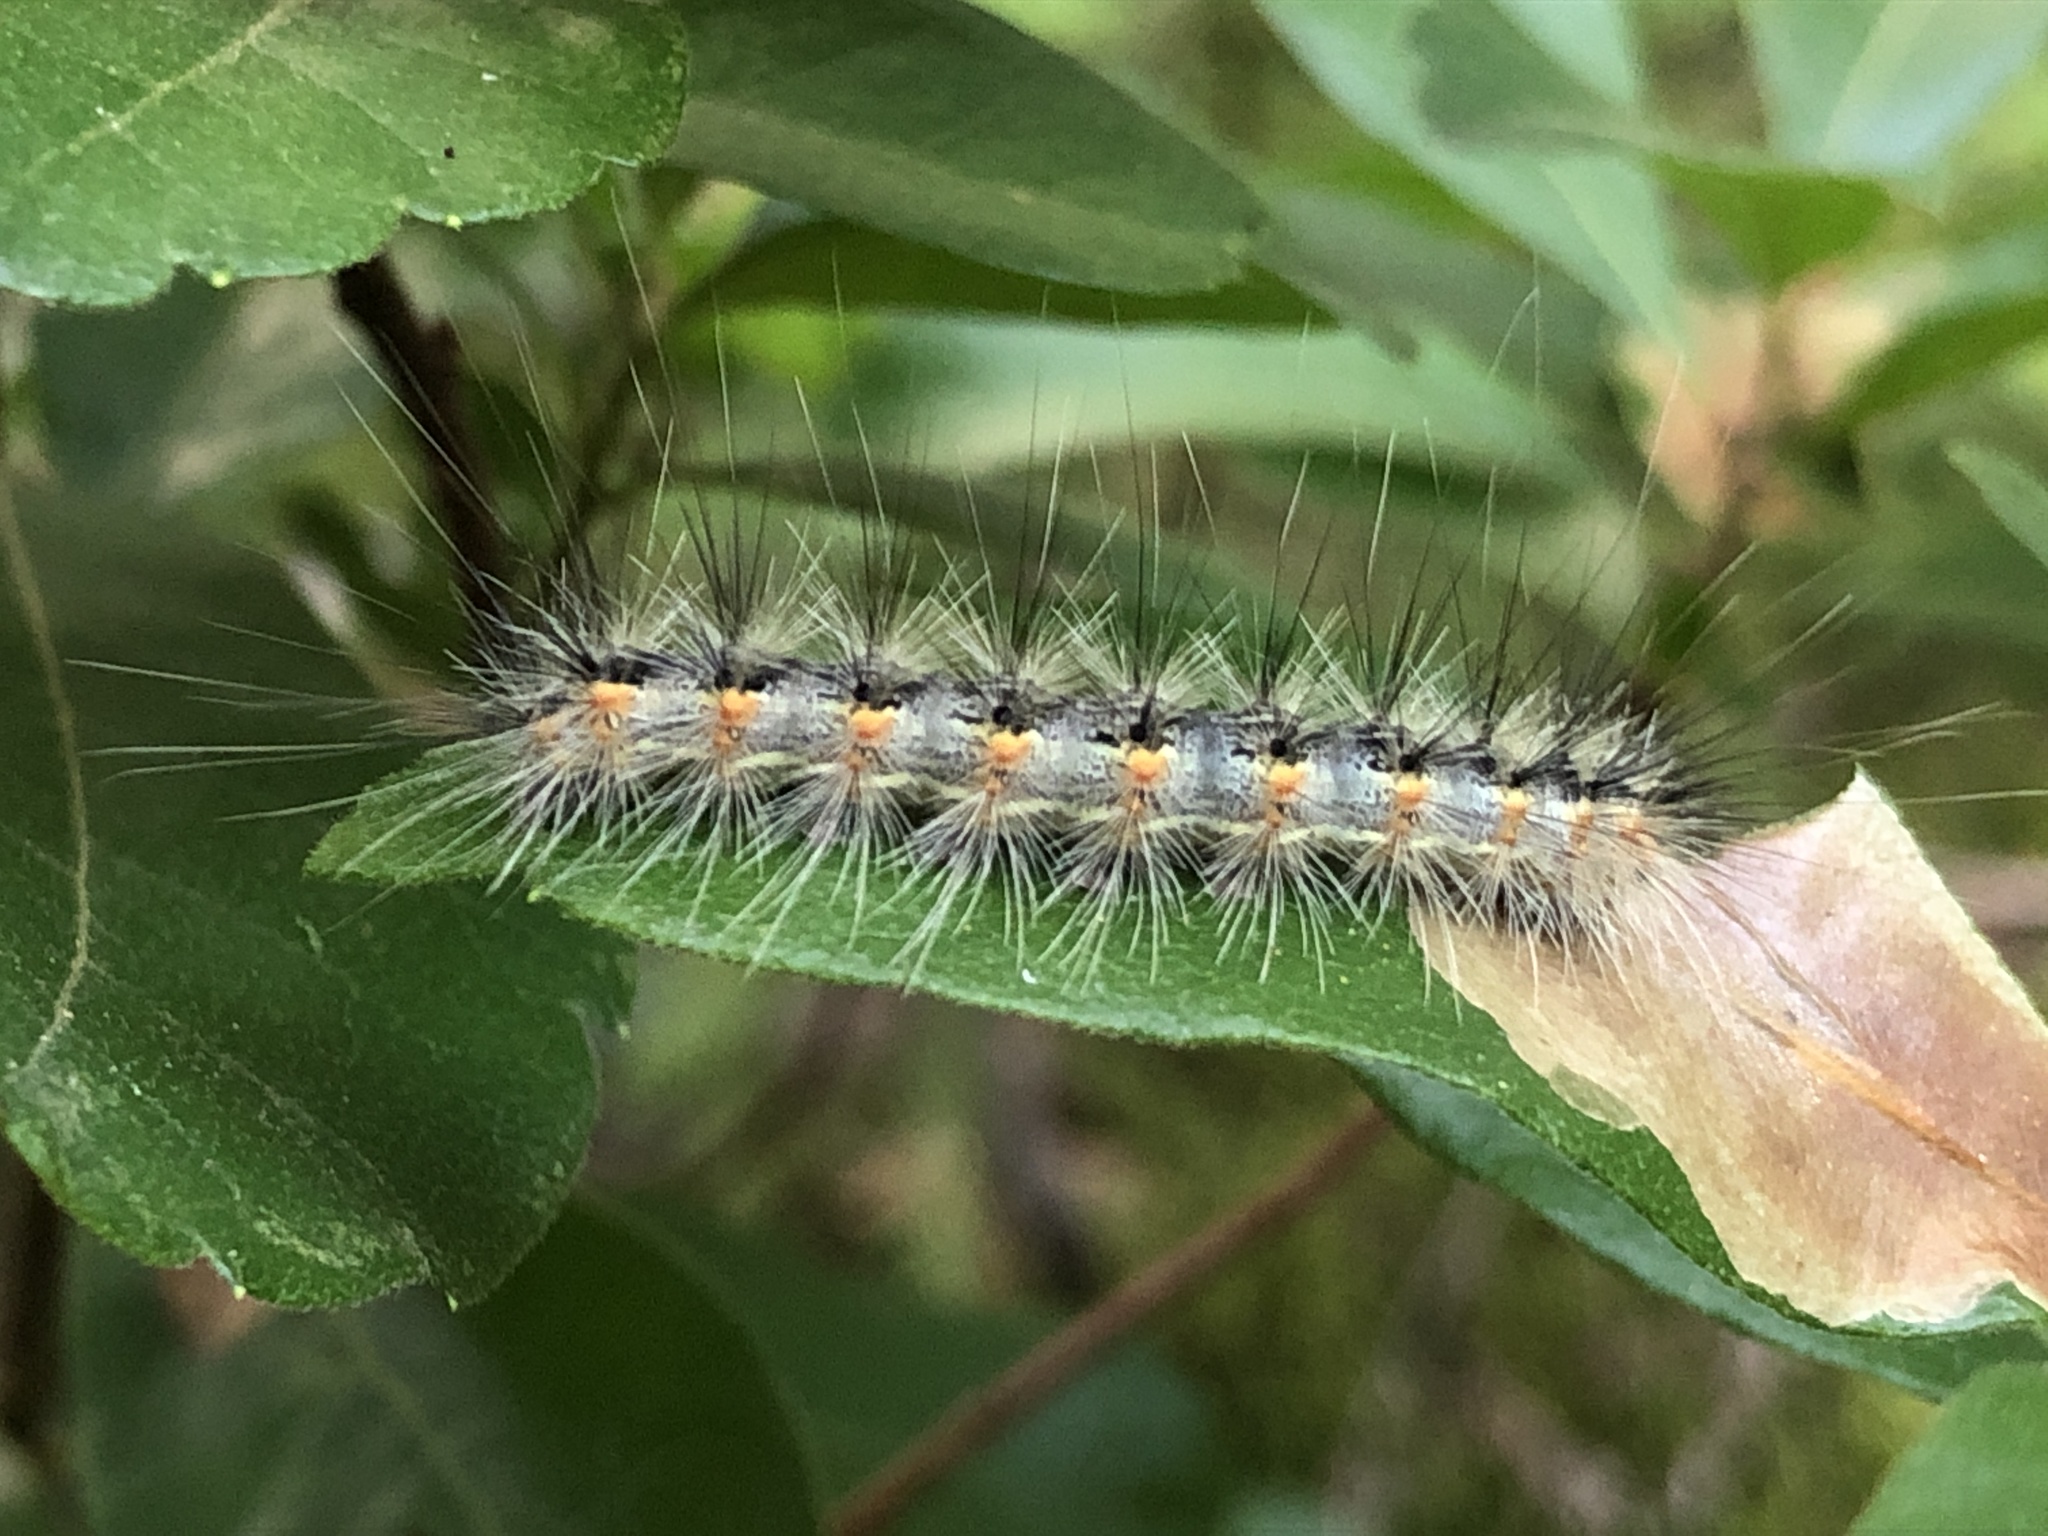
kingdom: Animalia
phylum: Arthropoda
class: Insecta
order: Lepidoptera
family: Erebidae
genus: Hyphantria
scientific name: Hyphantria cunea
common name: American white moth
